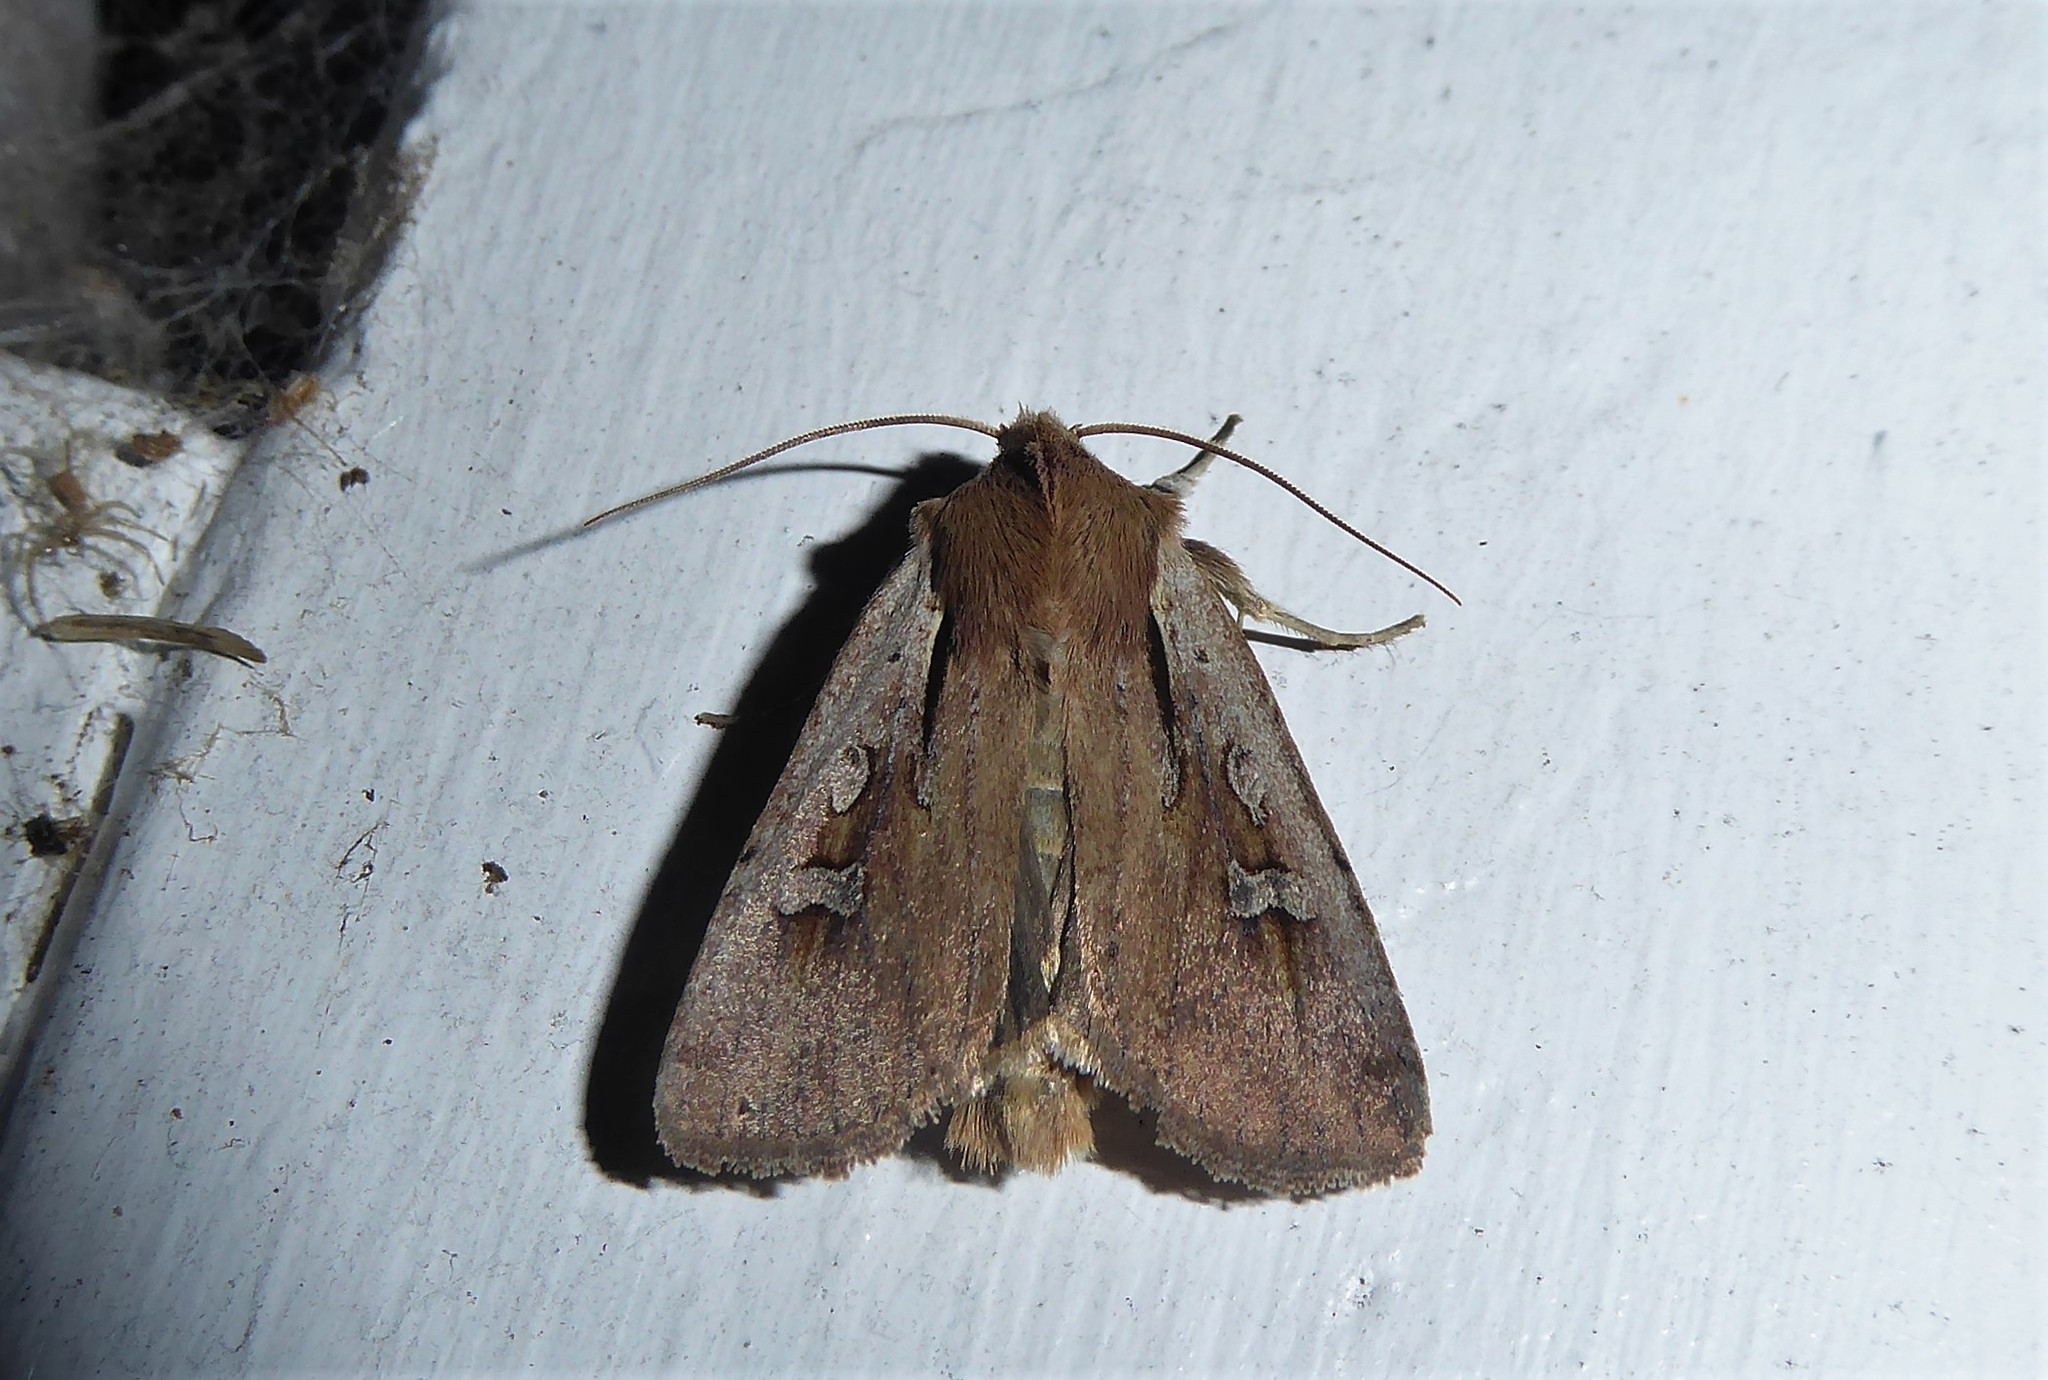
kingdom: Animalia
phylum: Arthropoda
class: Insecta
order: Lepidoptera
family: Noctuidae
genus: Ichneutica
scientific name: Ichneutica atristriga
